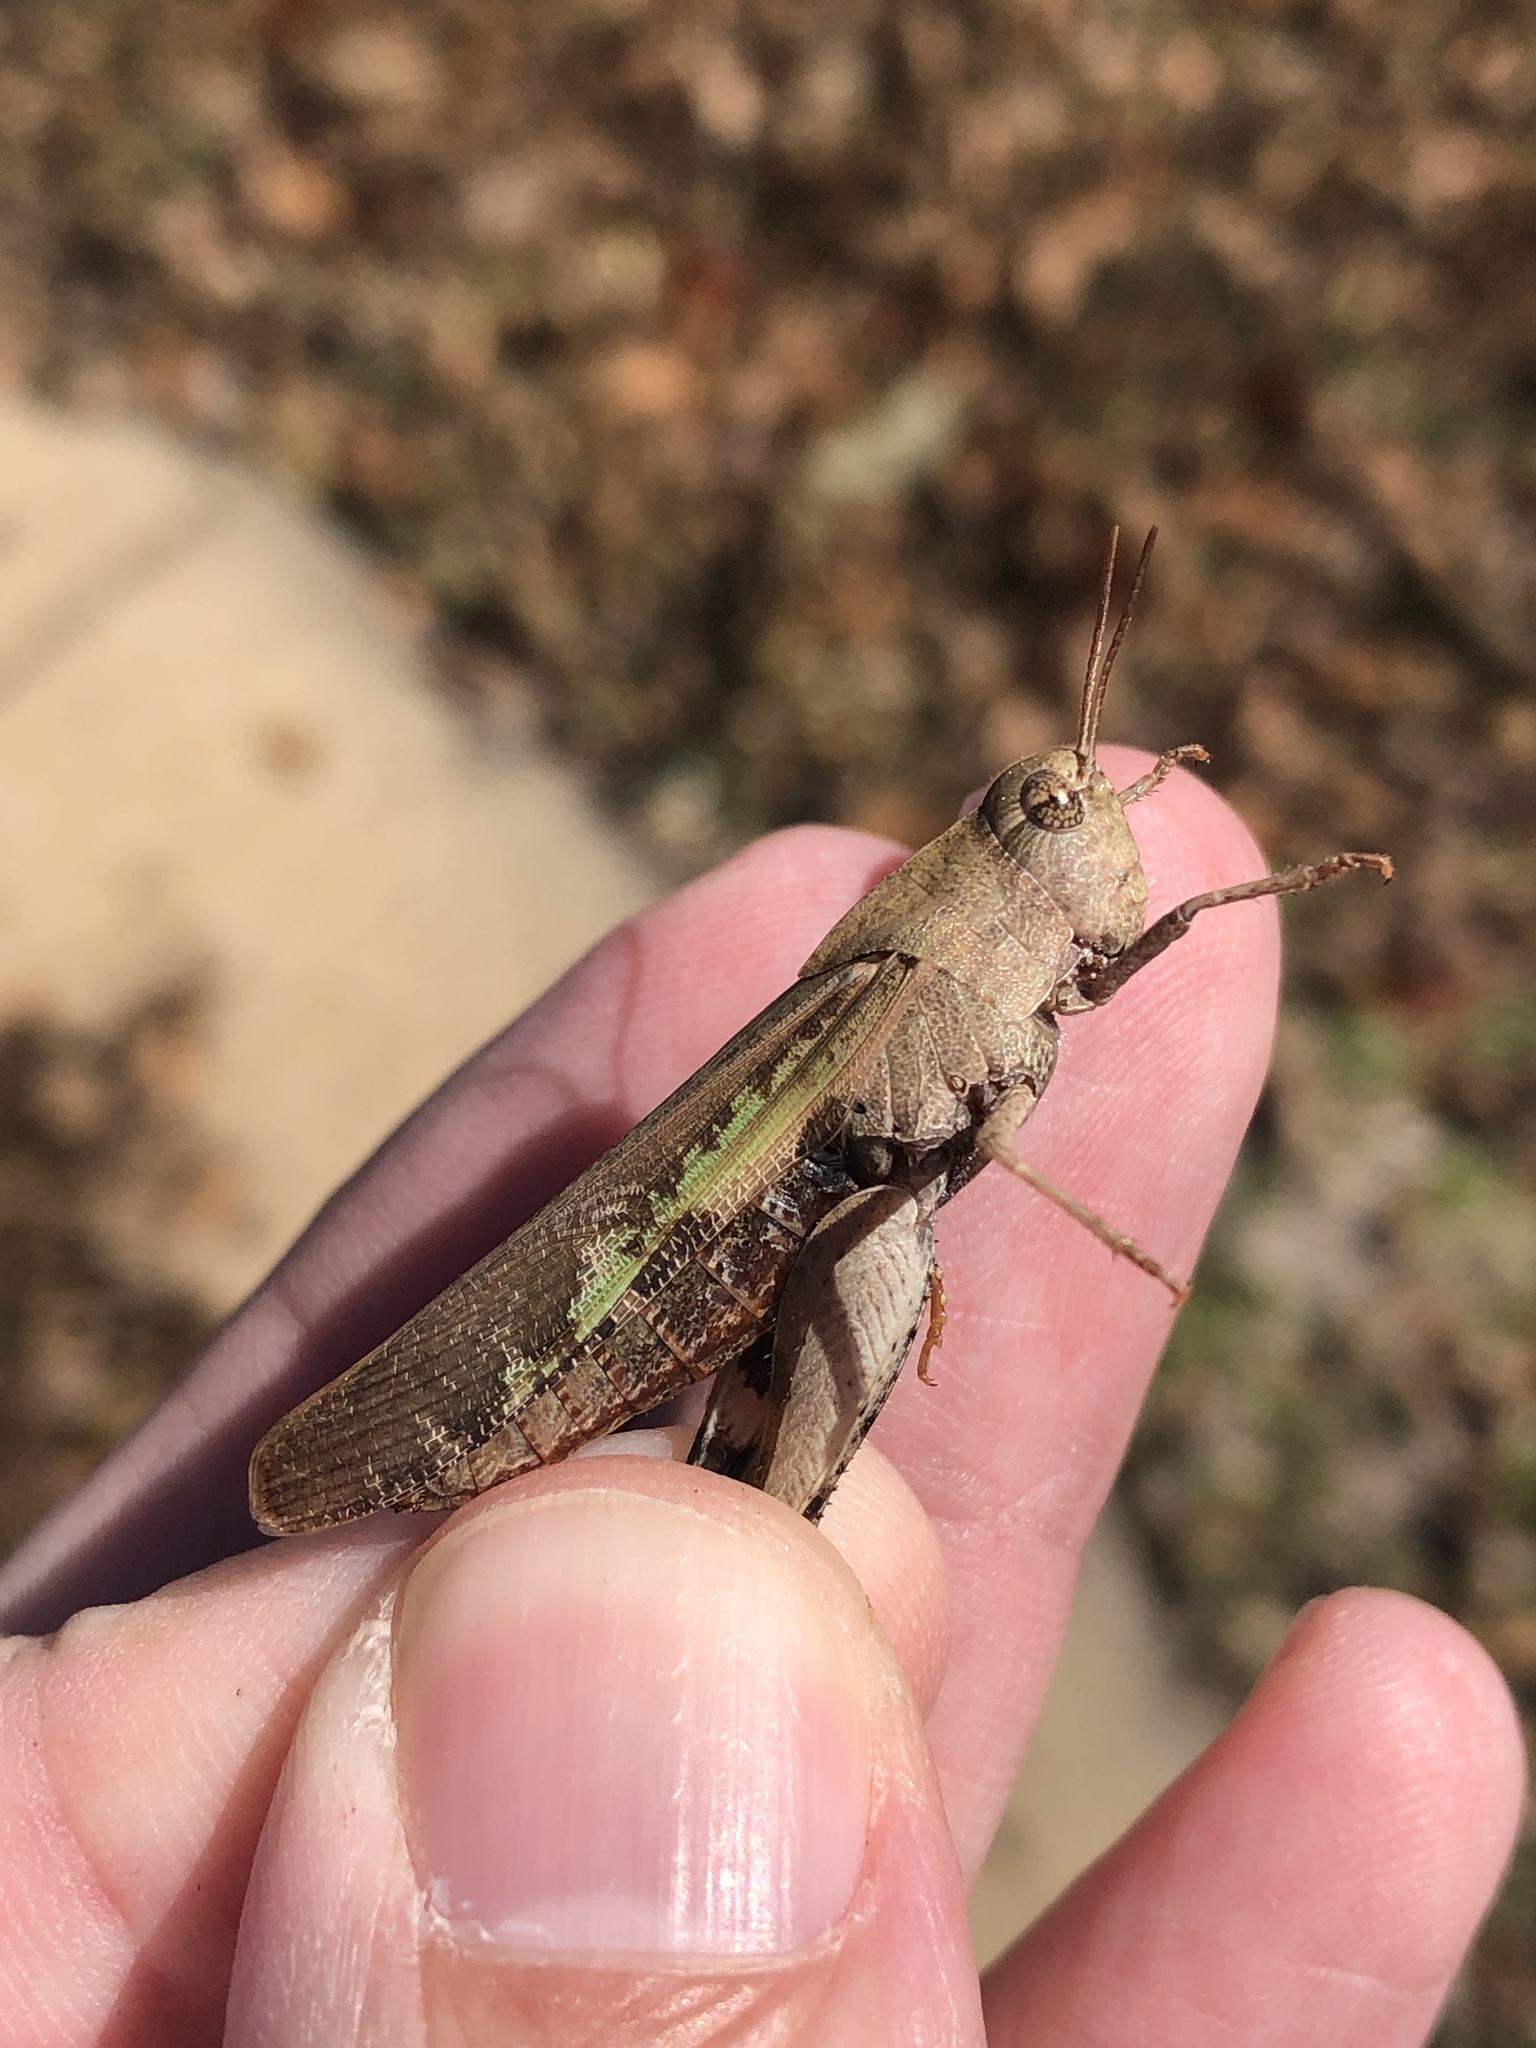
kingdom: Animalia
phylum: Arthropoda
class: Insecta
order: Orthoptera
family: Acrididae
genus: Chortophaga
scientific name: Chortophaga viridifasciata
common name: Green-striped grasshopper
